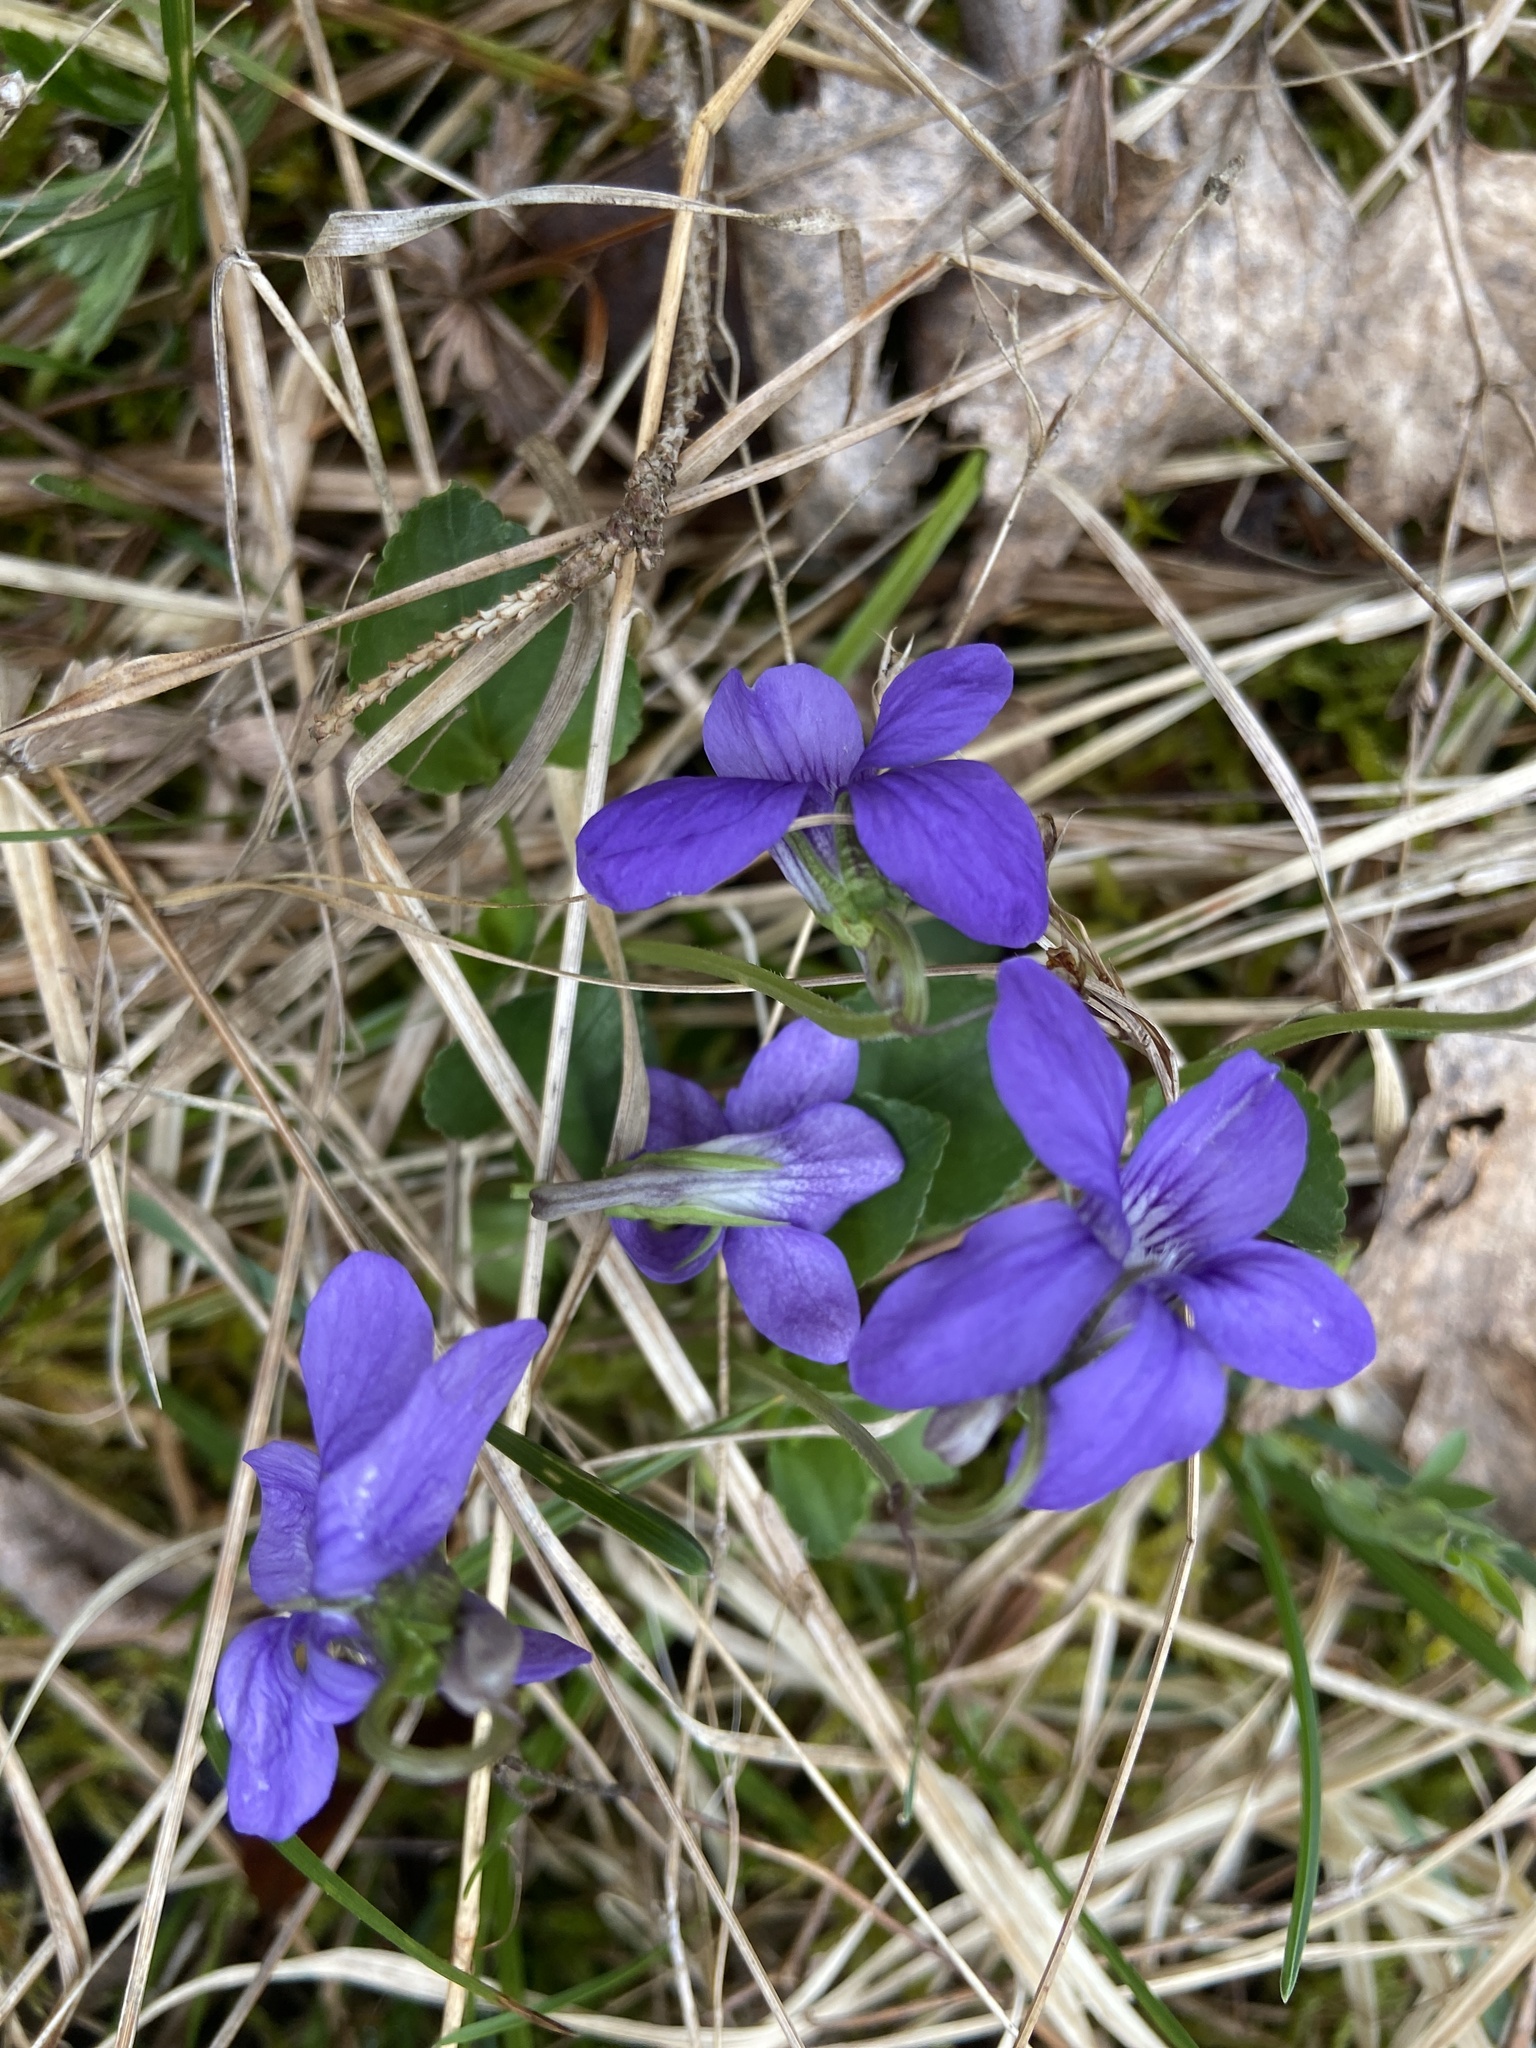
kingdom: Plantae
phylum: Tracheophyta
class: Magnoliopsida
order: Malpighiales
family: Violaceae
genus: Viola
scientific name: Viola riviniana
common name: Common dog-violet
